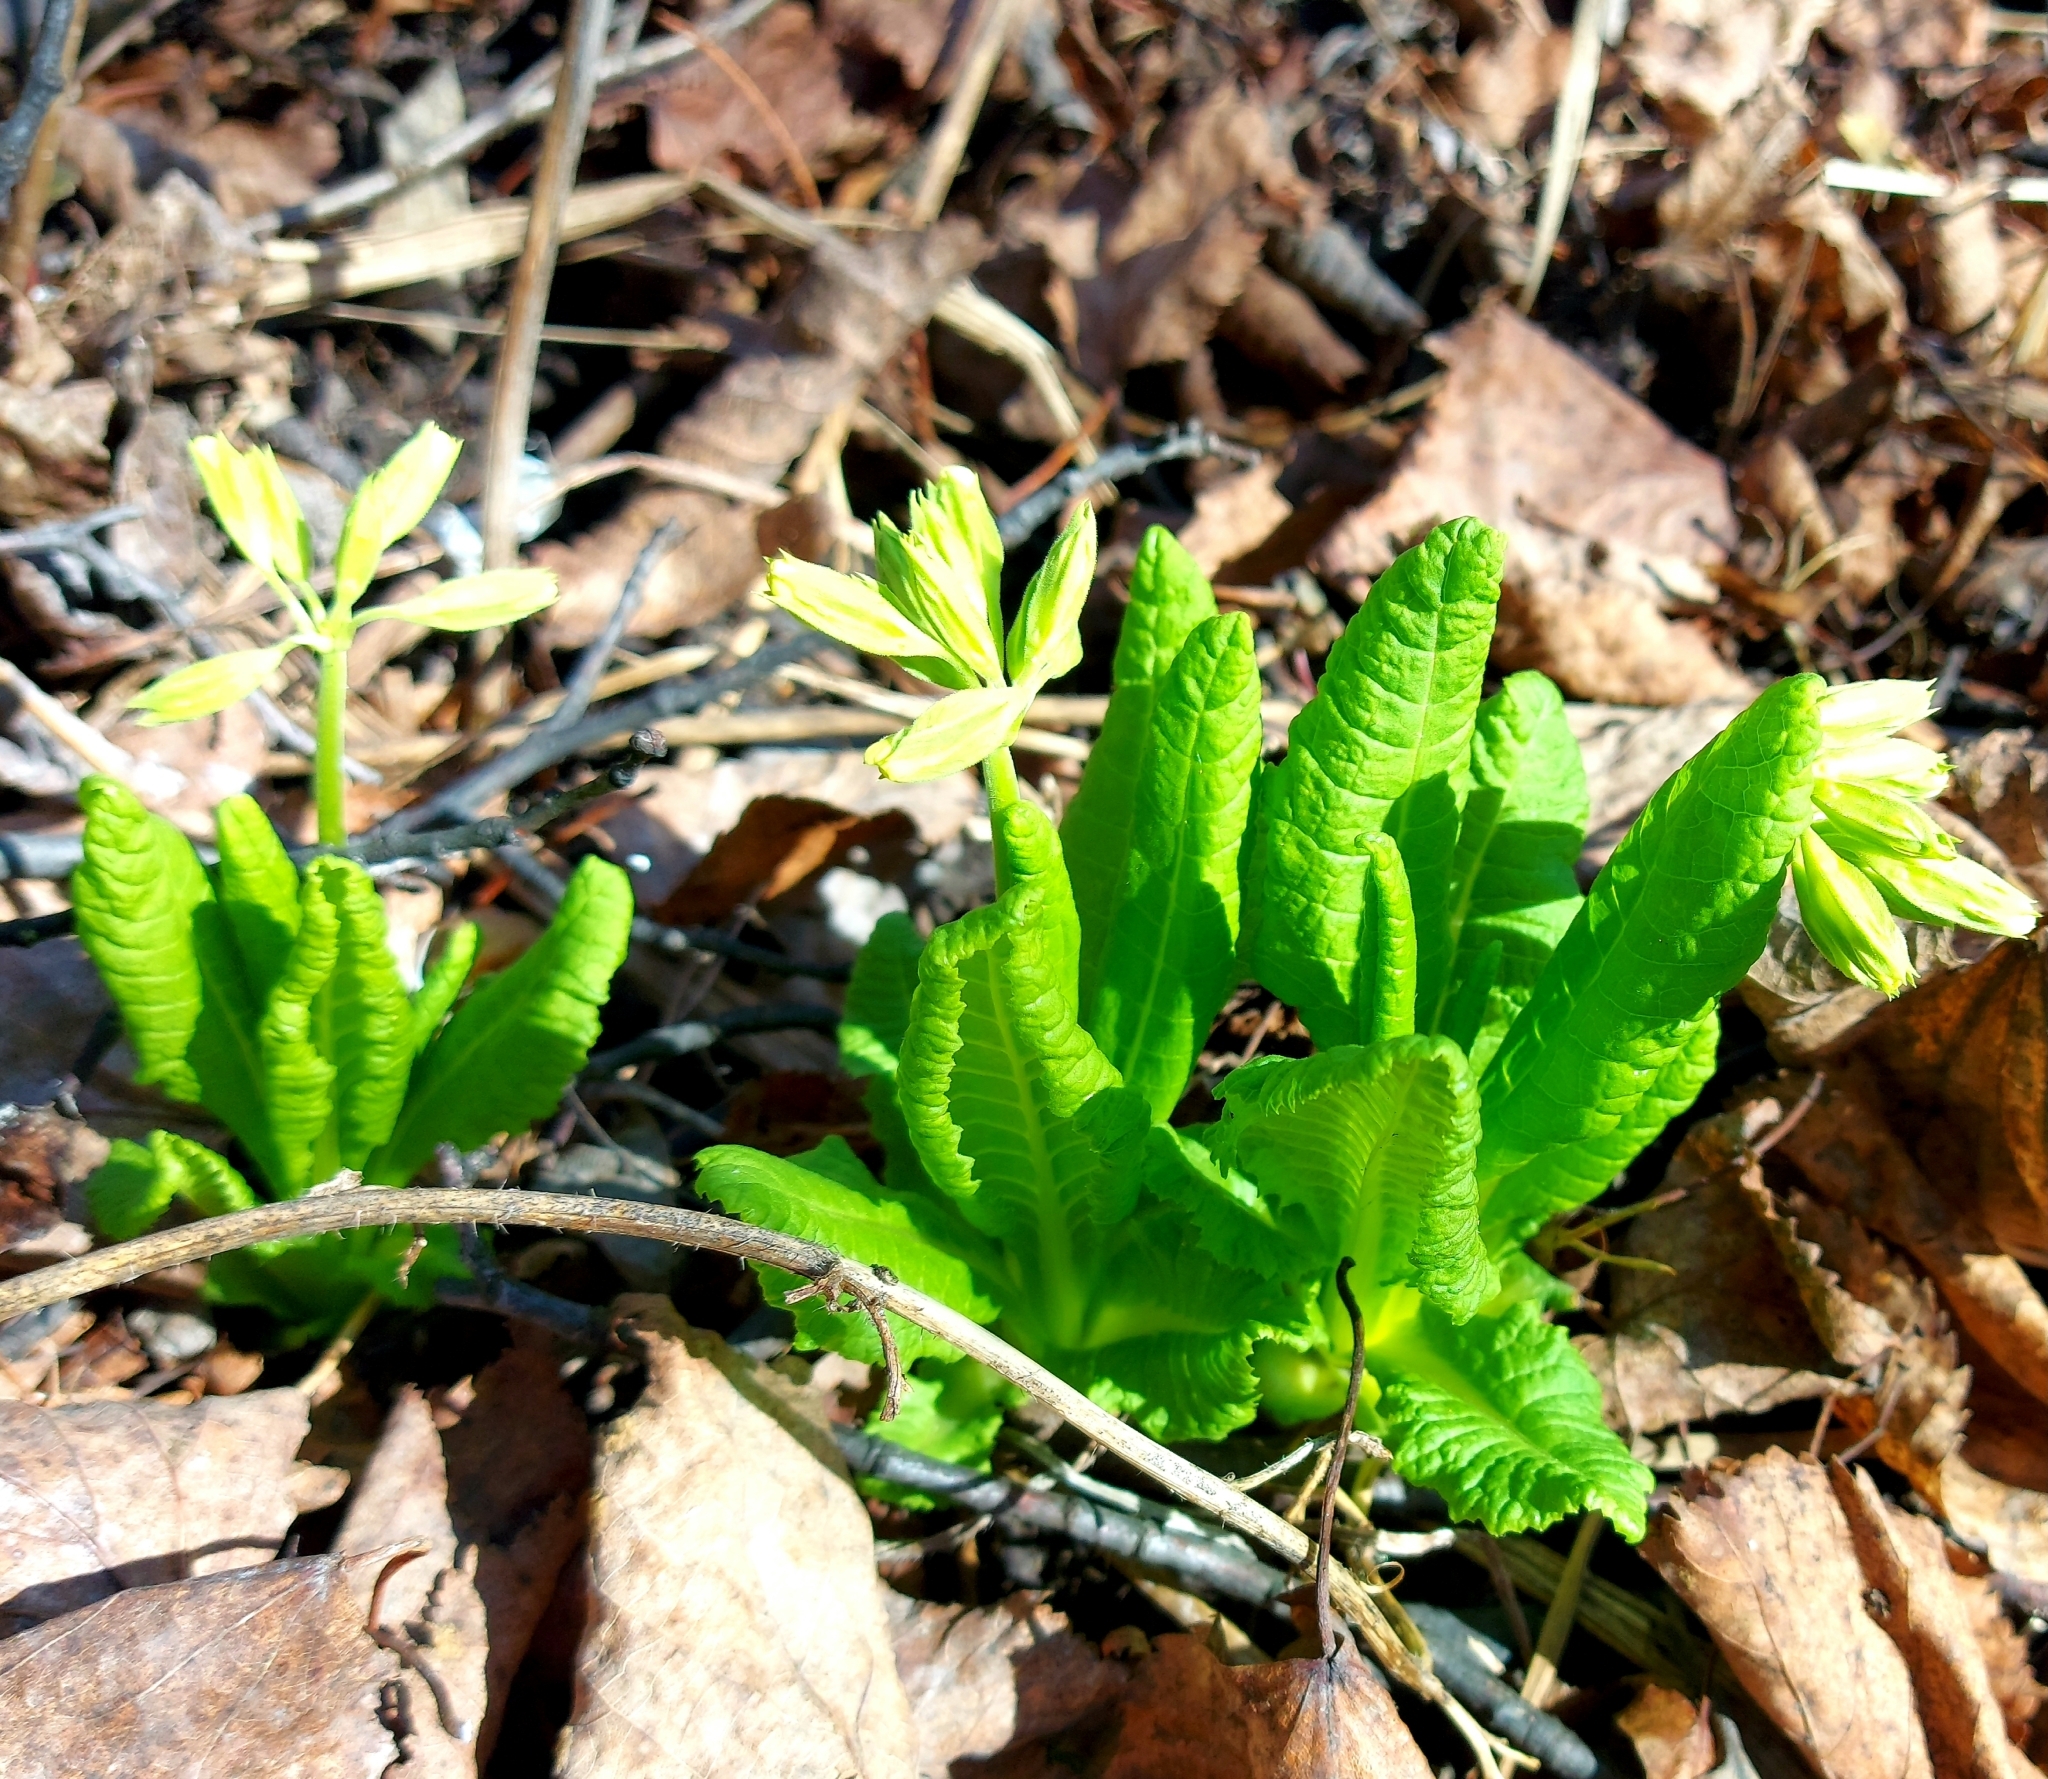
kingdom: Plantae
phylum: Tracheophyta
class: Magnoliopsida
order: Ericales
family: Primulaceae
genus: Primula
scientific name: Primula veris
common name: Cowslip
